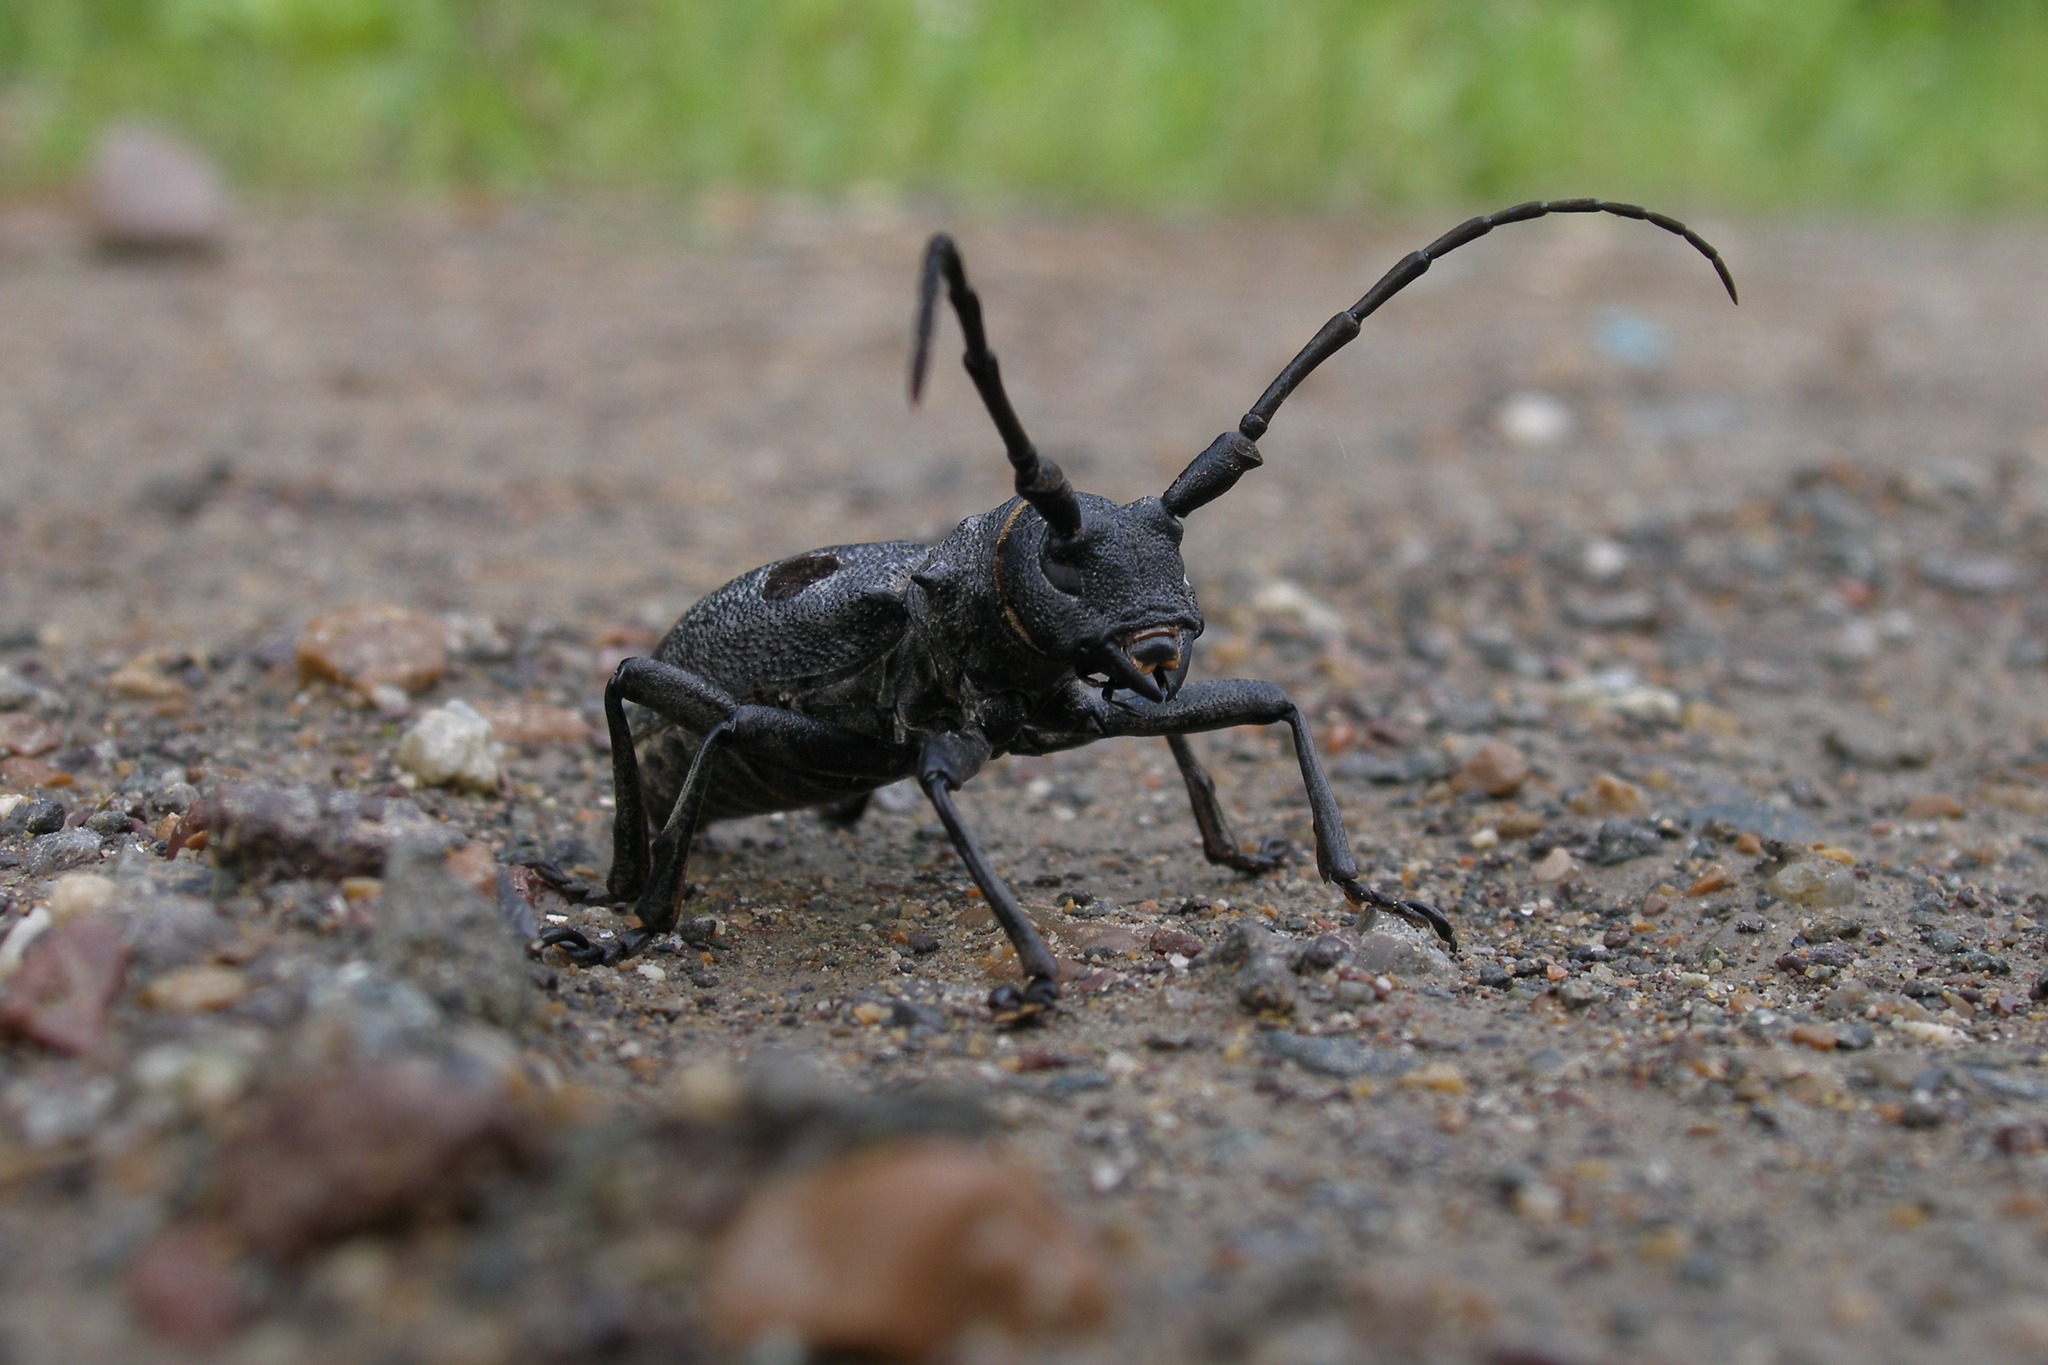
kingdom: Animalia
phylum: Arthropoda
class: Insecta
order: Coleoptera
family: Cerambycidae
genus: Morimus
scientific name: Morimus funereus
